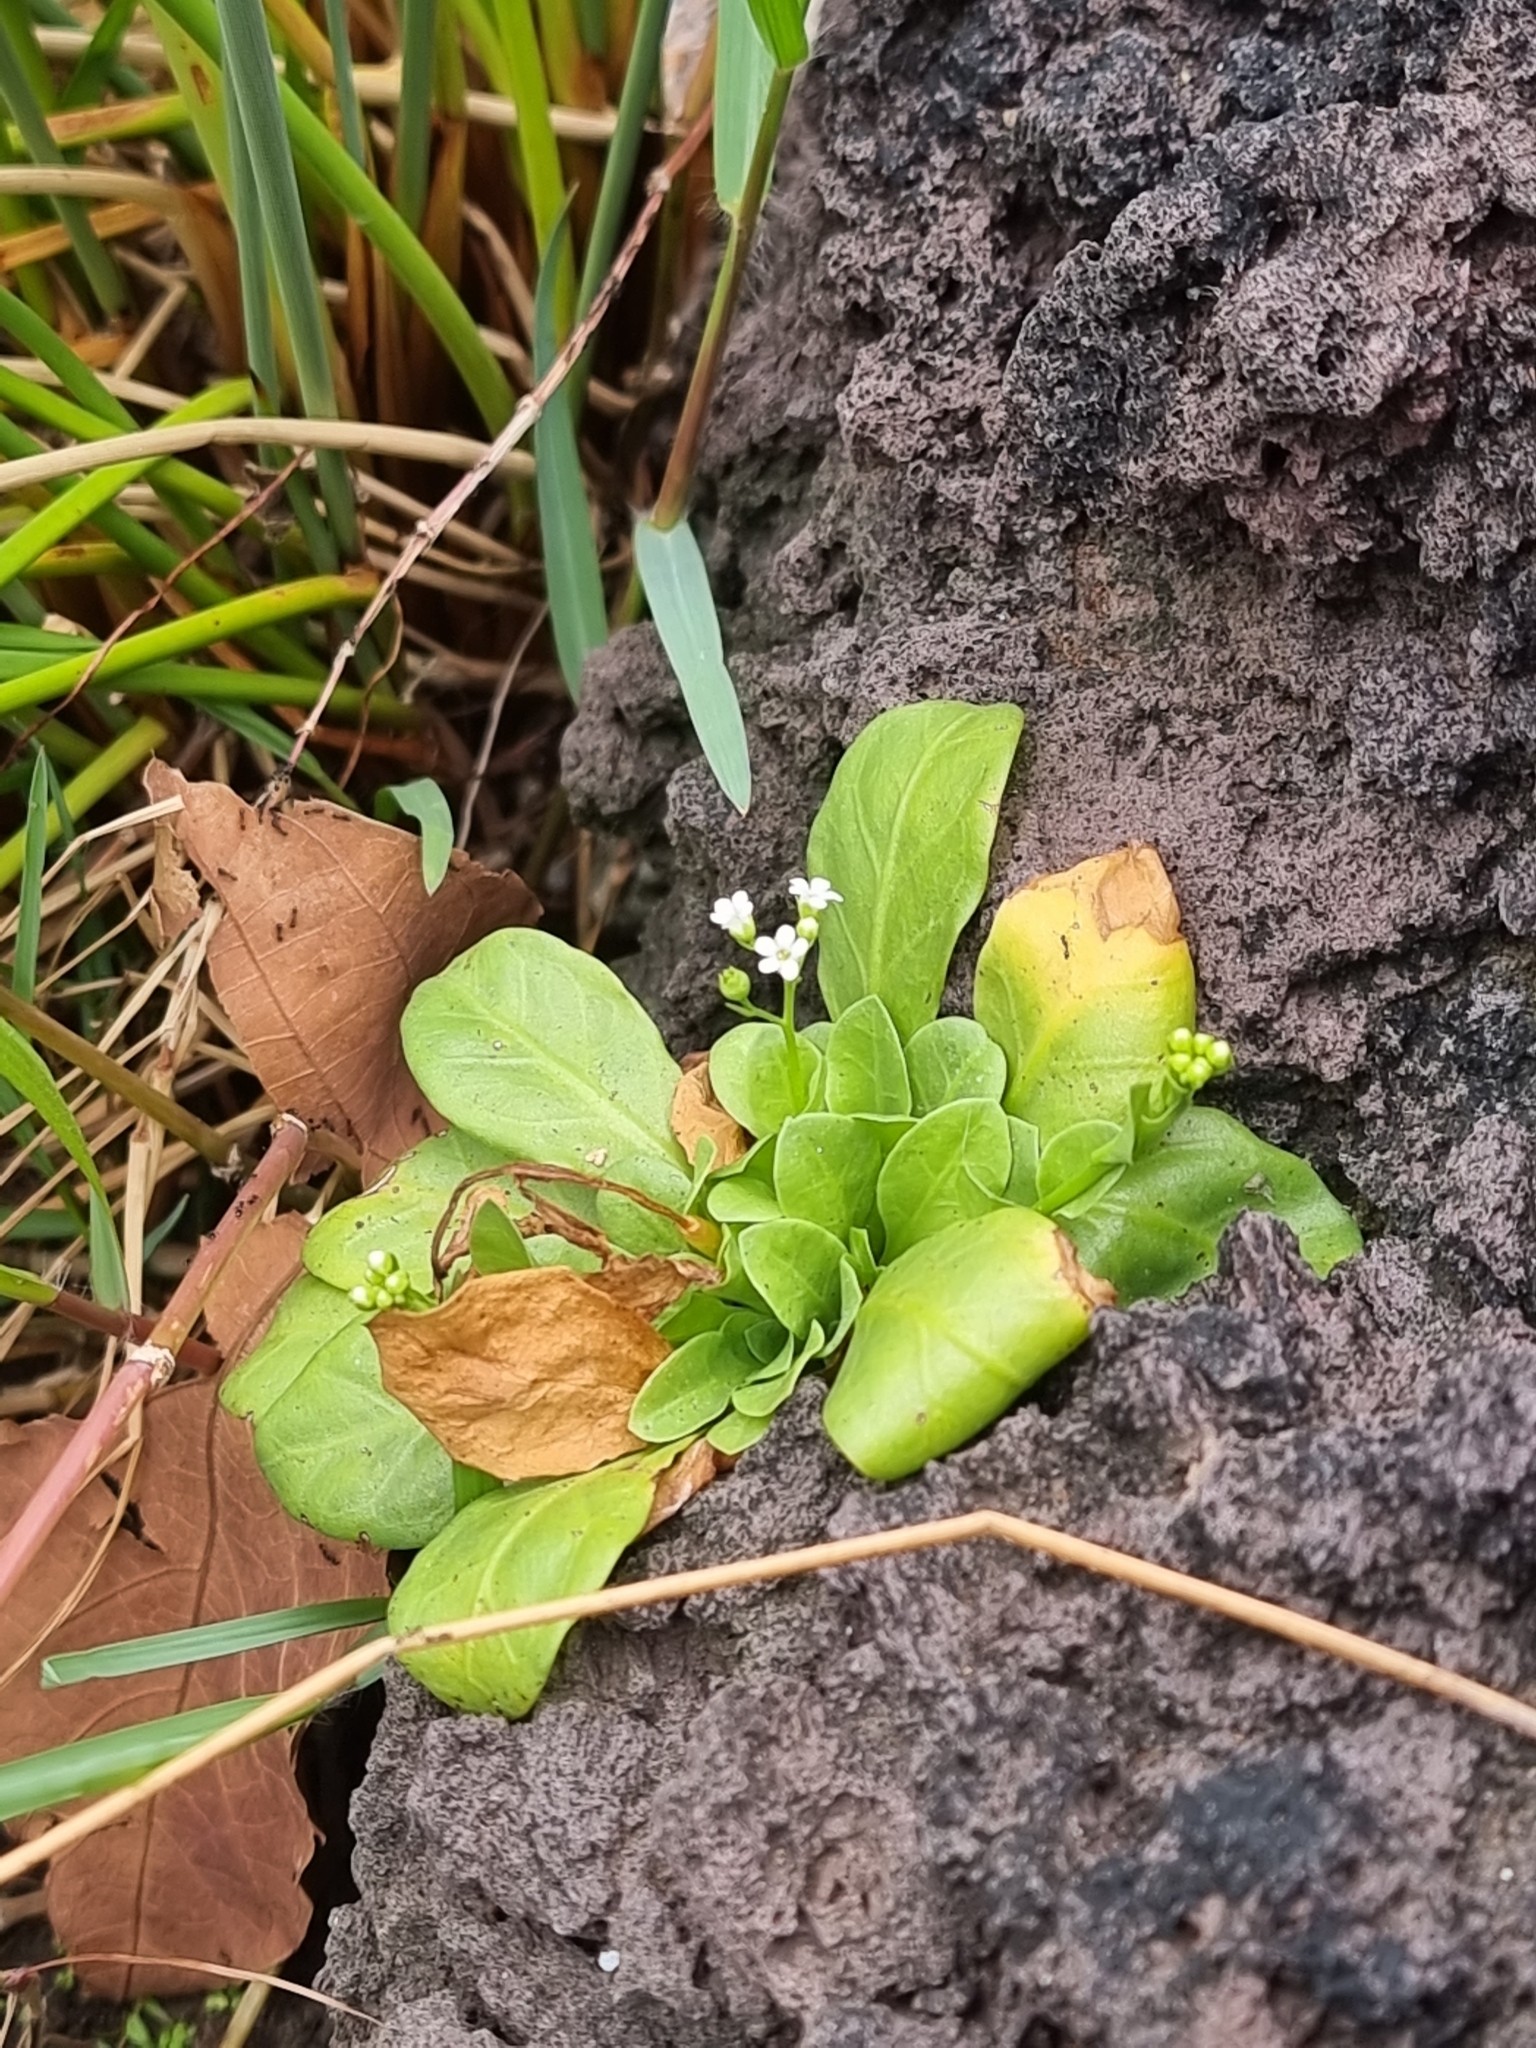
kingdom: Plantae
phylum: Tracheophyta
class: Magnoliopsida
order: Ericales
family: Primulaceae
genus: Samolus
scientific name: Samolus valerandi
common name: Brookweed
